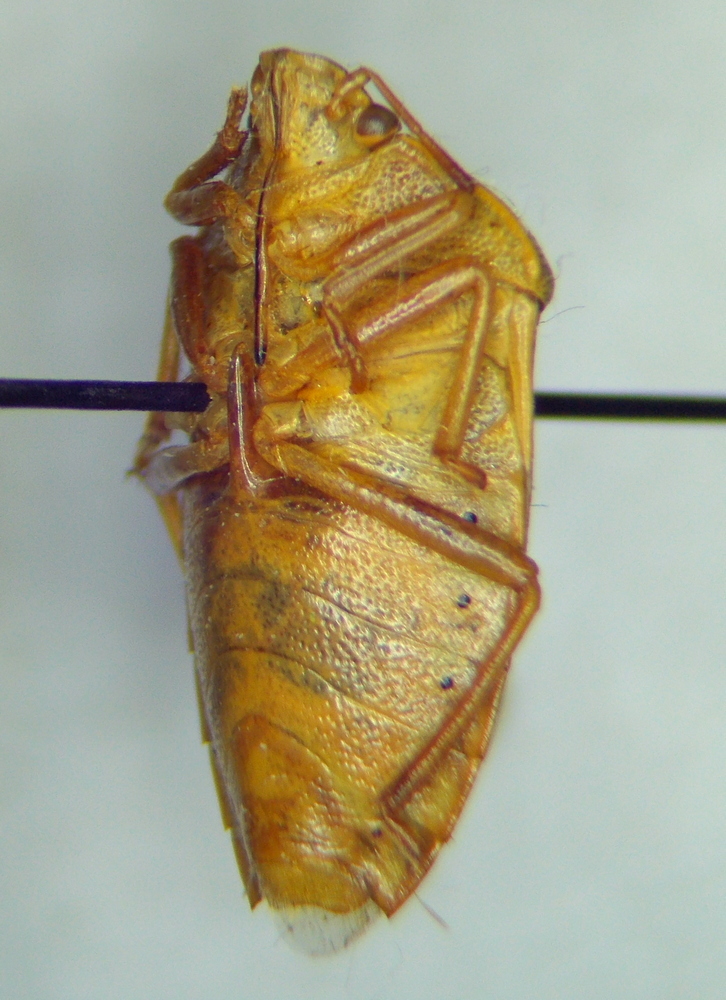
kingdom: Animalia
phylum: Arthropoda
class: Insecta
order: Hemiptera
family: Pentatomidae
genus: Piezodorus
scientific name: Piezodorus lituratus
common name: Stink bug
